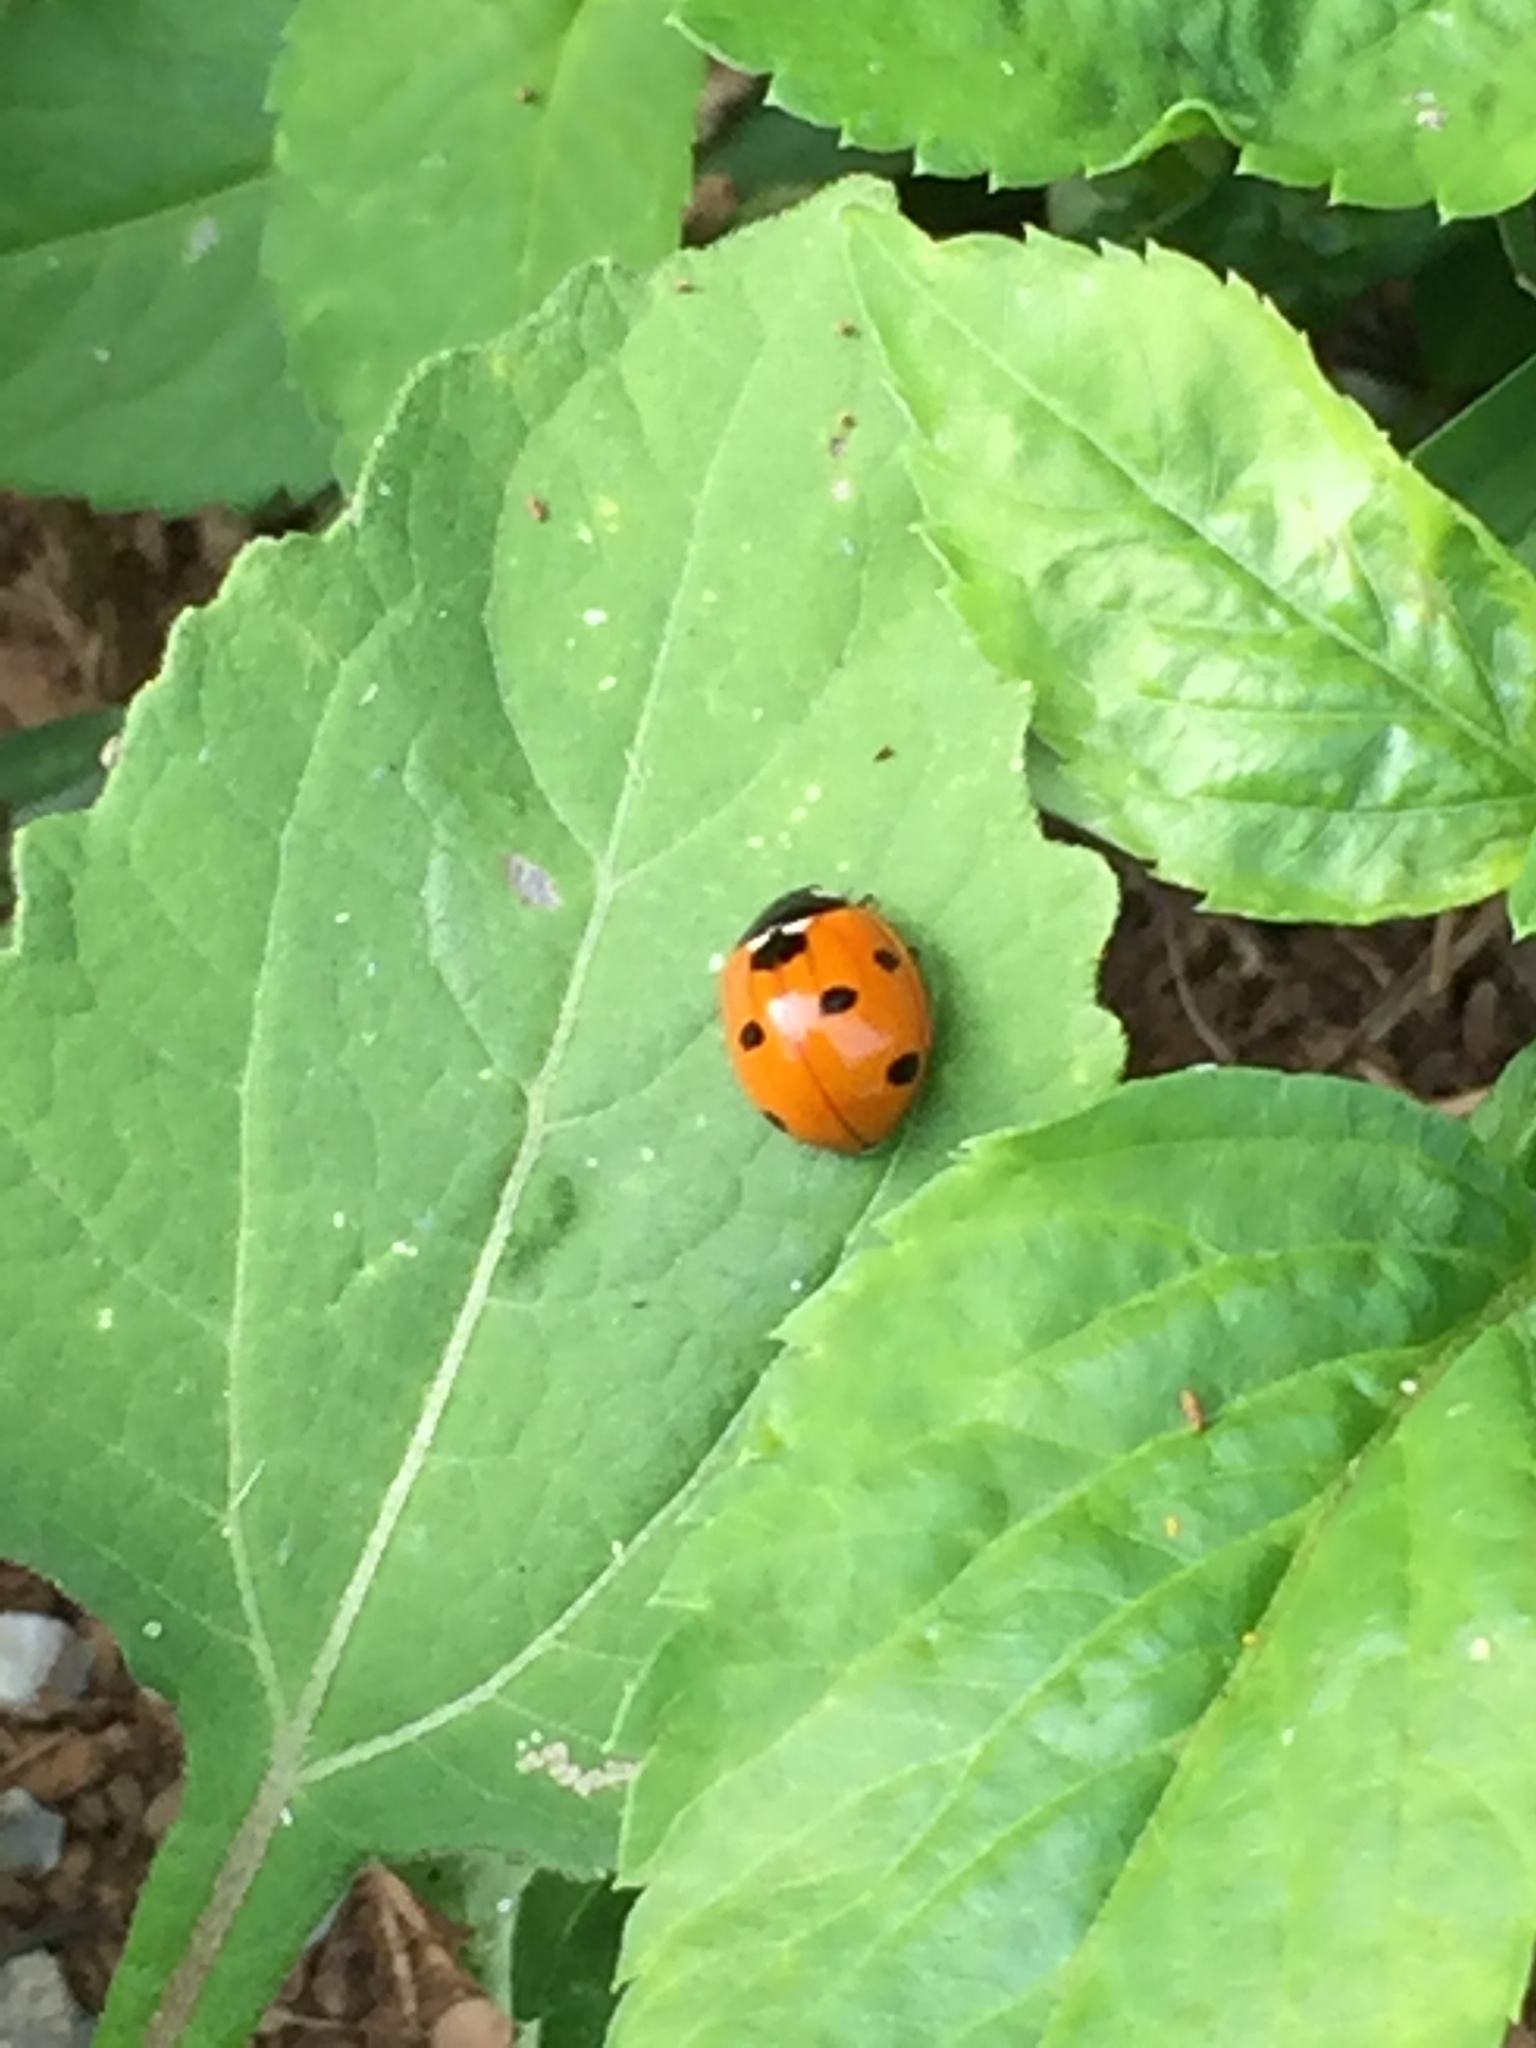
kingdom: Animalia
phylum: Arthropoda
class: Insecta
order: Coleoptera
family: Coccinellidae
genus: Coccinella
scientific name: Coccinella septempunctata
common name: Sevenspotted lady beetle
